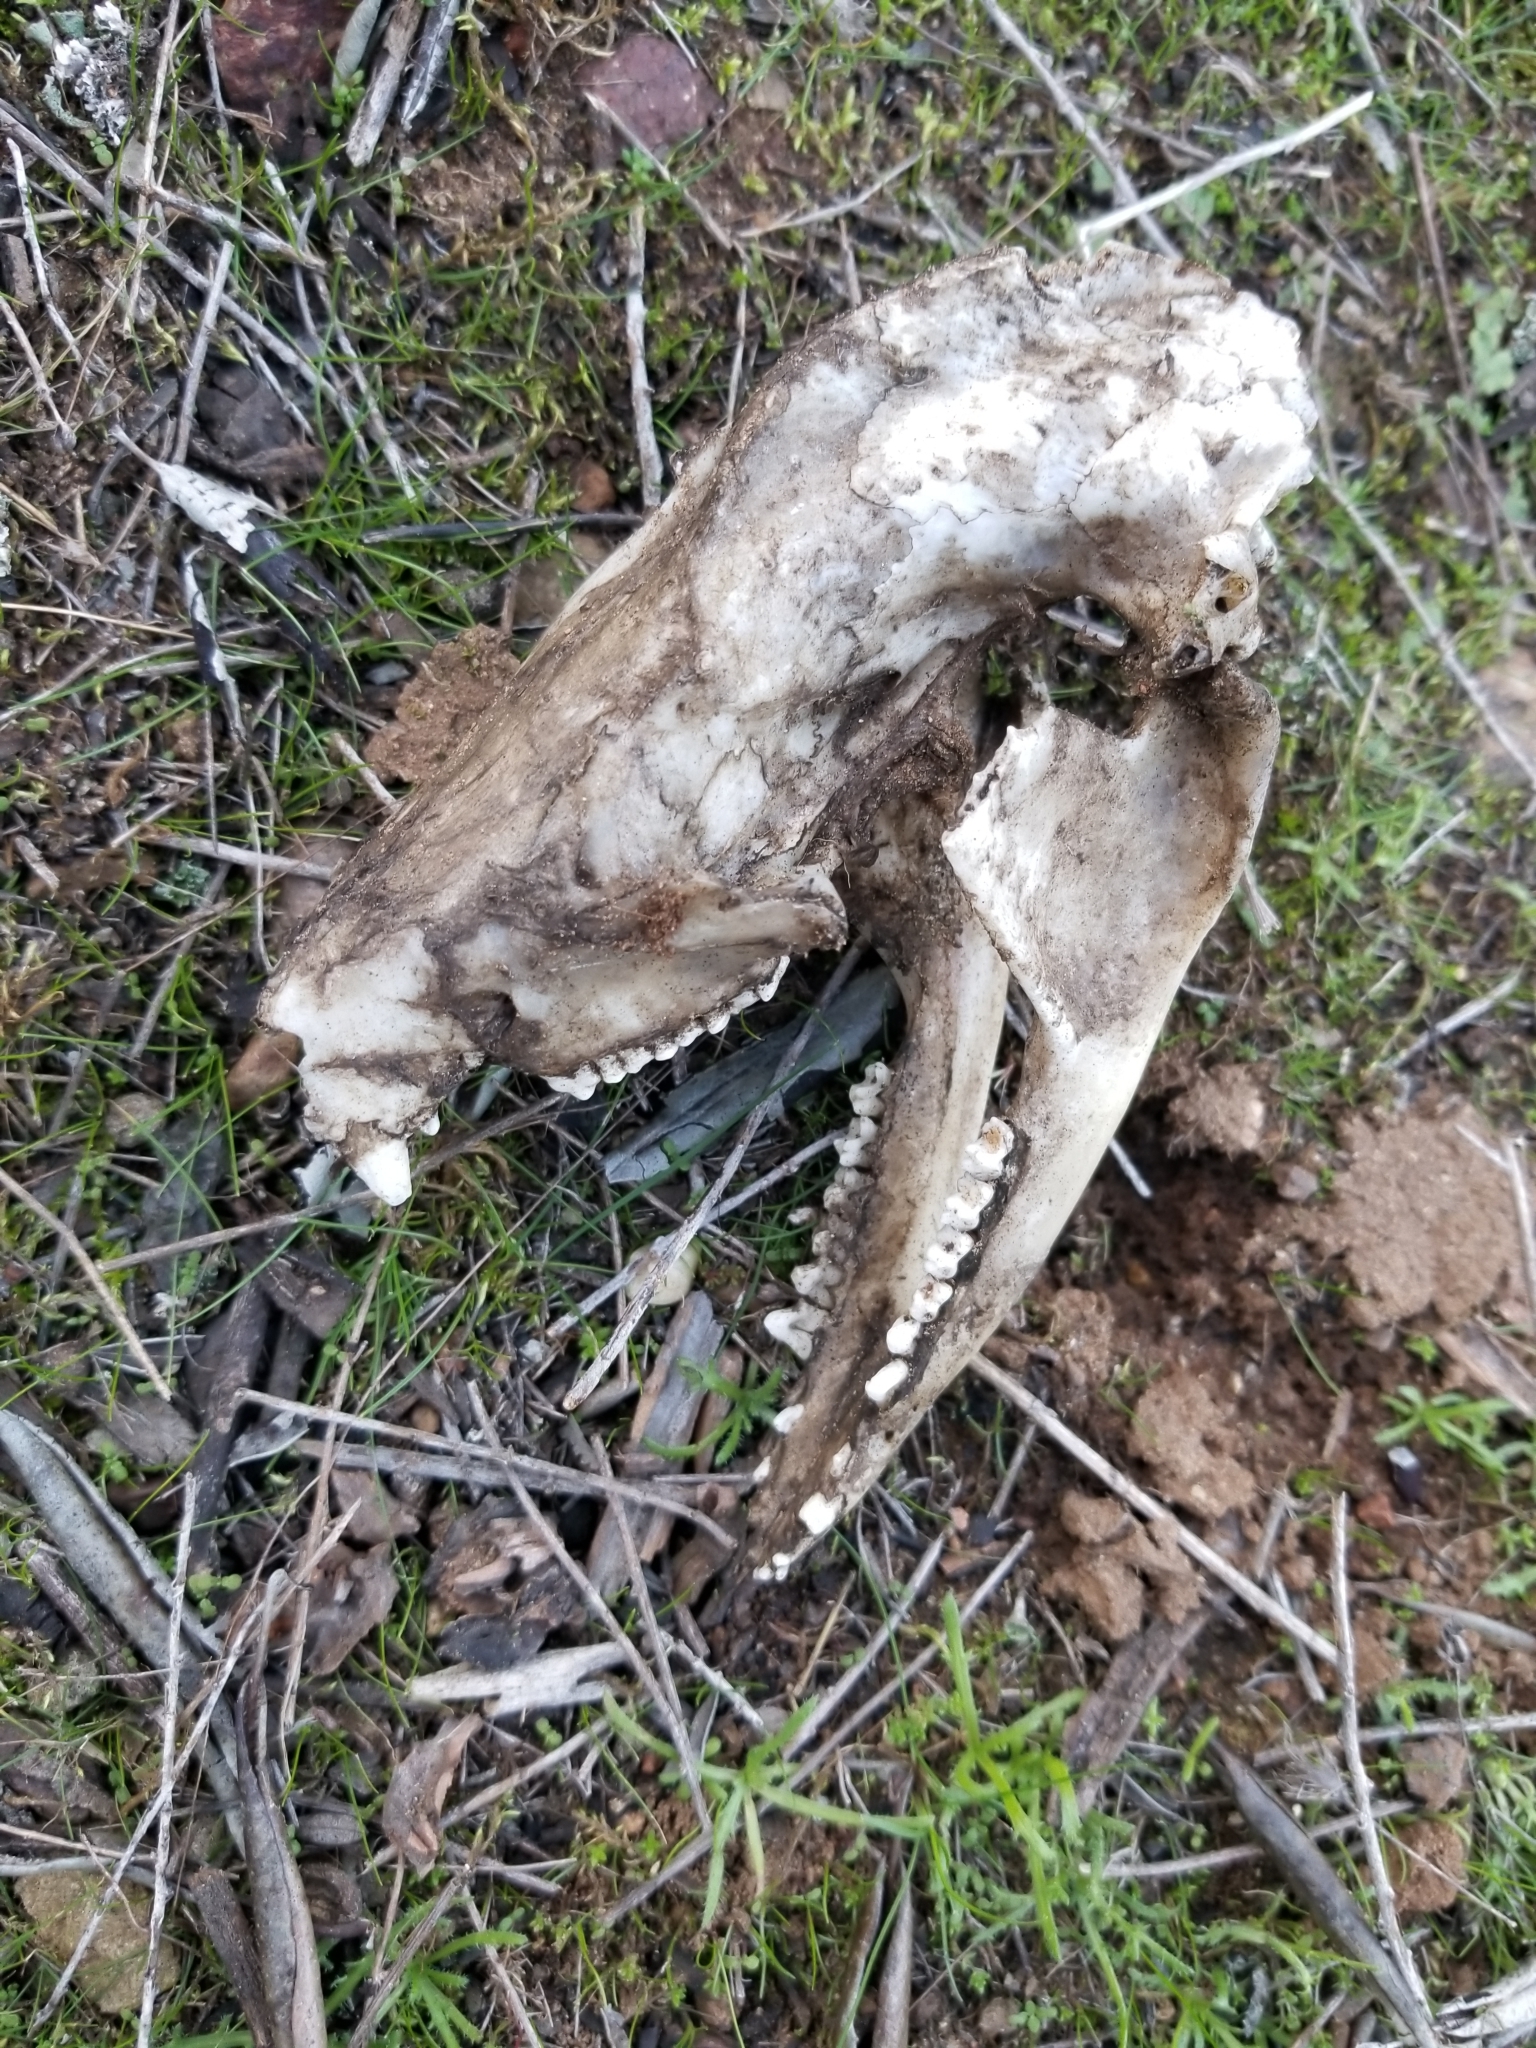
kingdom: Animalia
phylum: Chordata
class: Mammalia
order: Didelphimorphia
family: Didelphidae
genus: Didelphis
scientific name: Didelphis virginiana
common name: Virginia opossum
